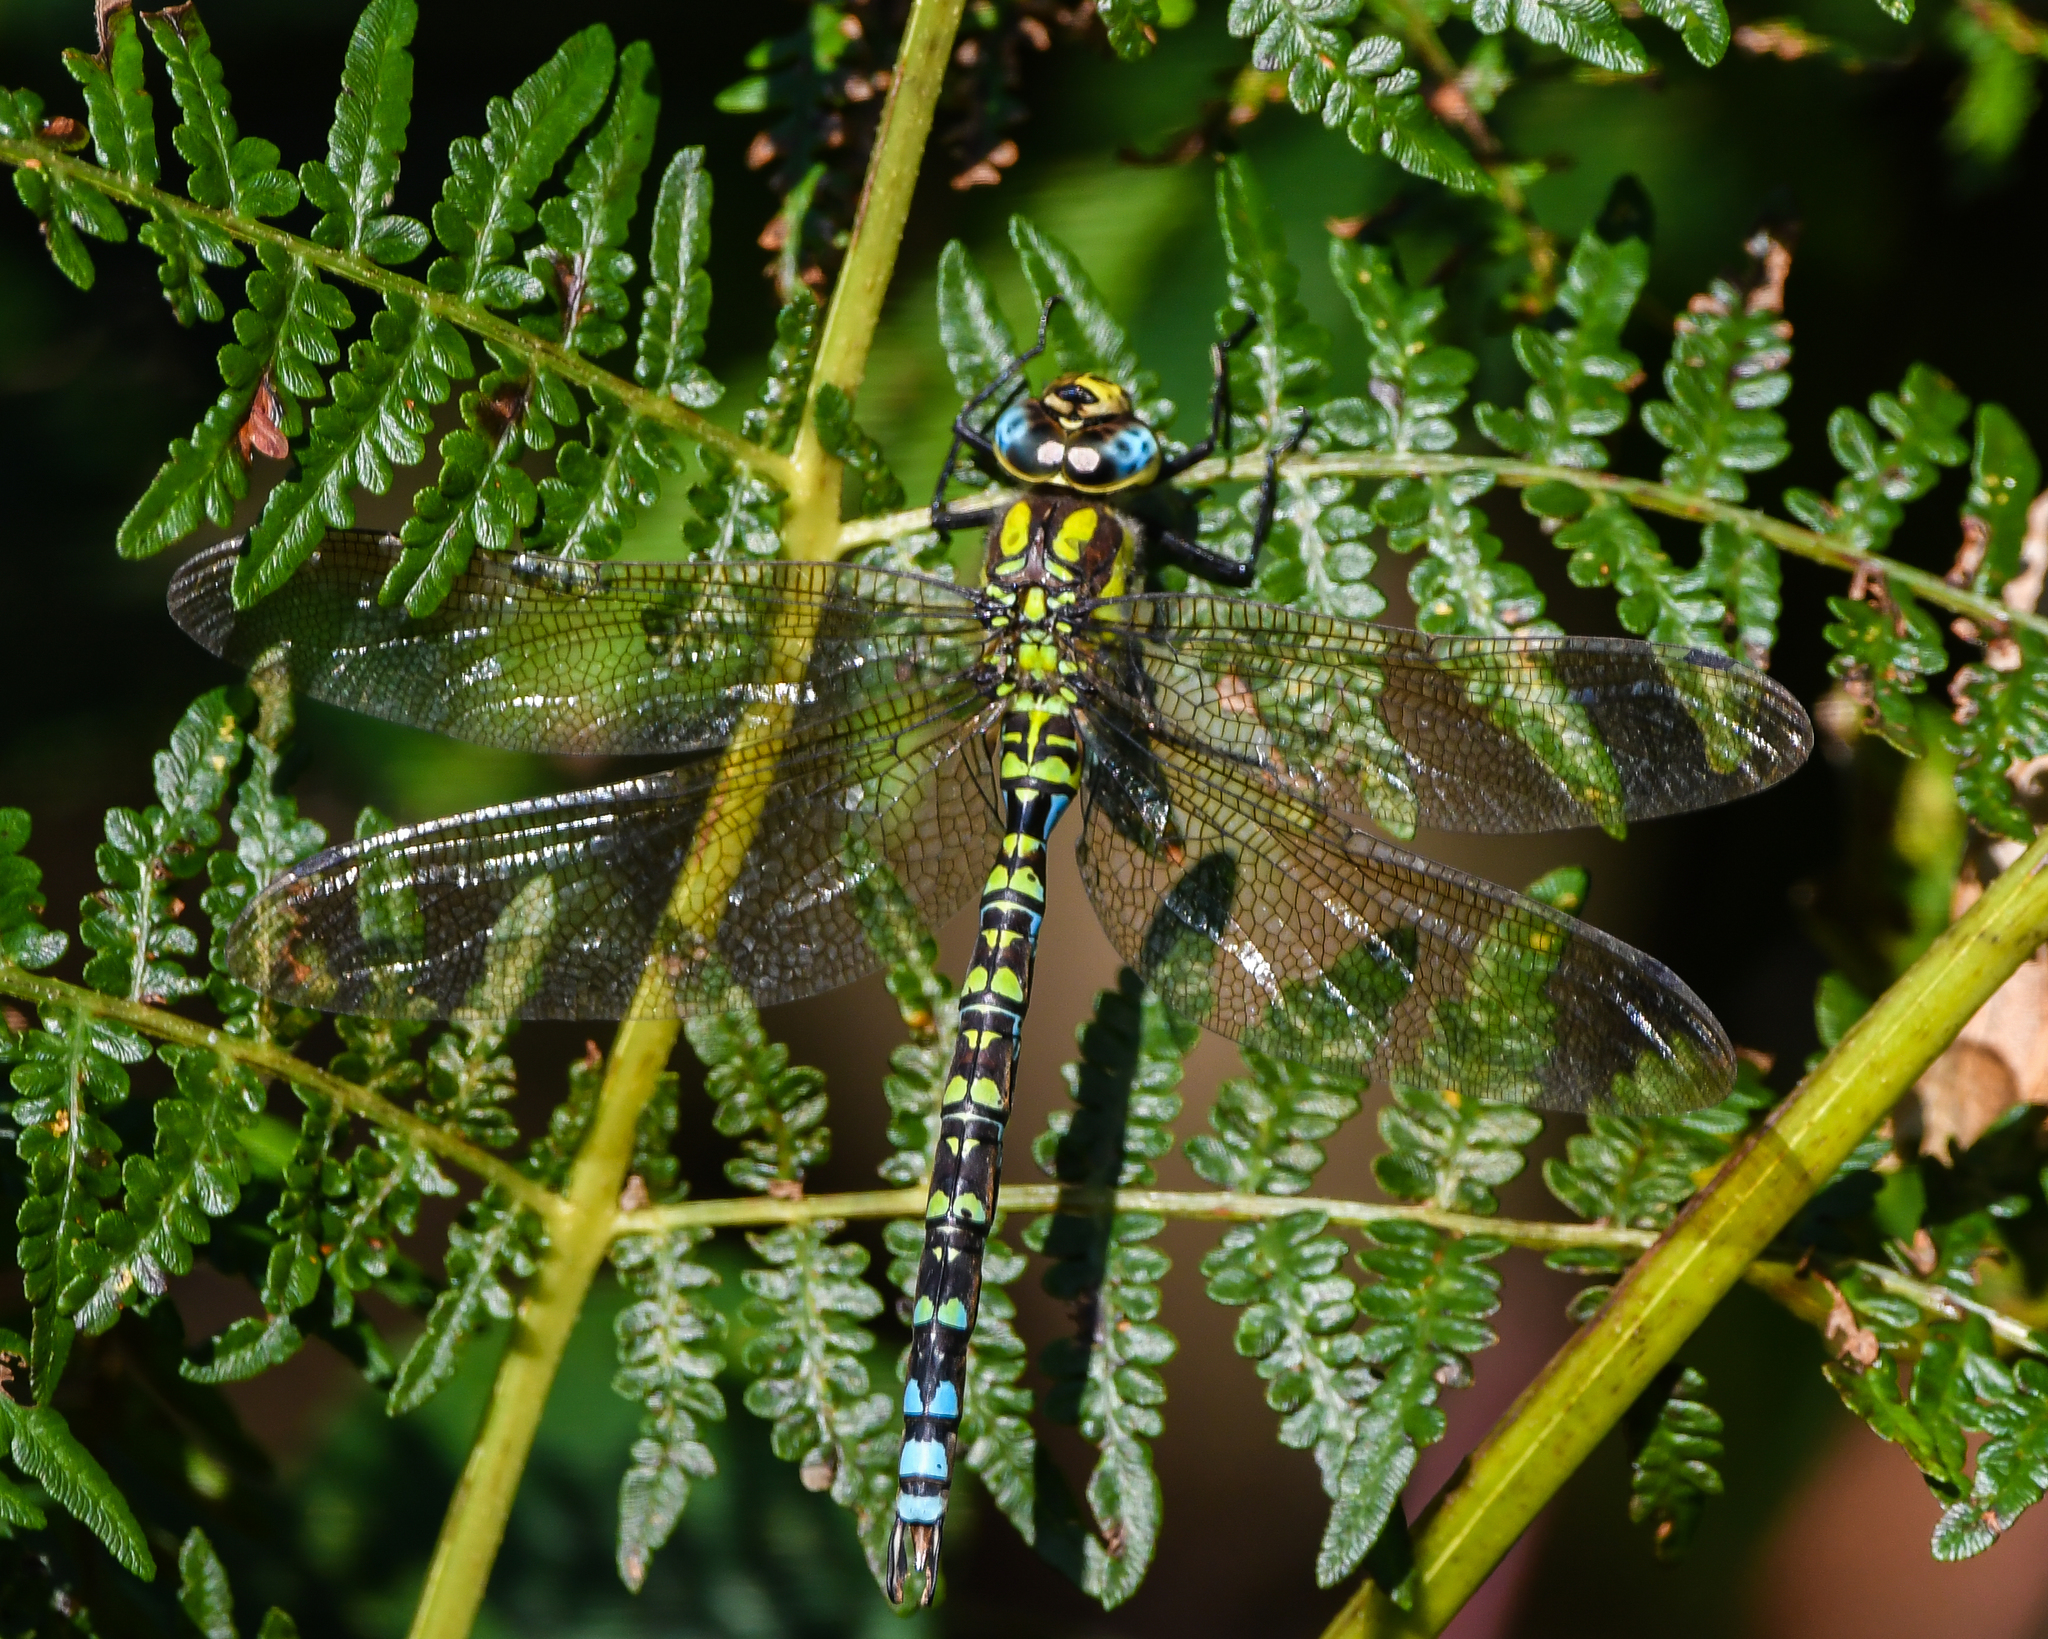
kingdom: Animalia
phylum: Arthropoda
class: Insecta
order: Odonata
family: Aeshnidae
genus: Aeshna
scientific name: Aeshna cyanea
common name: Southern hawker
